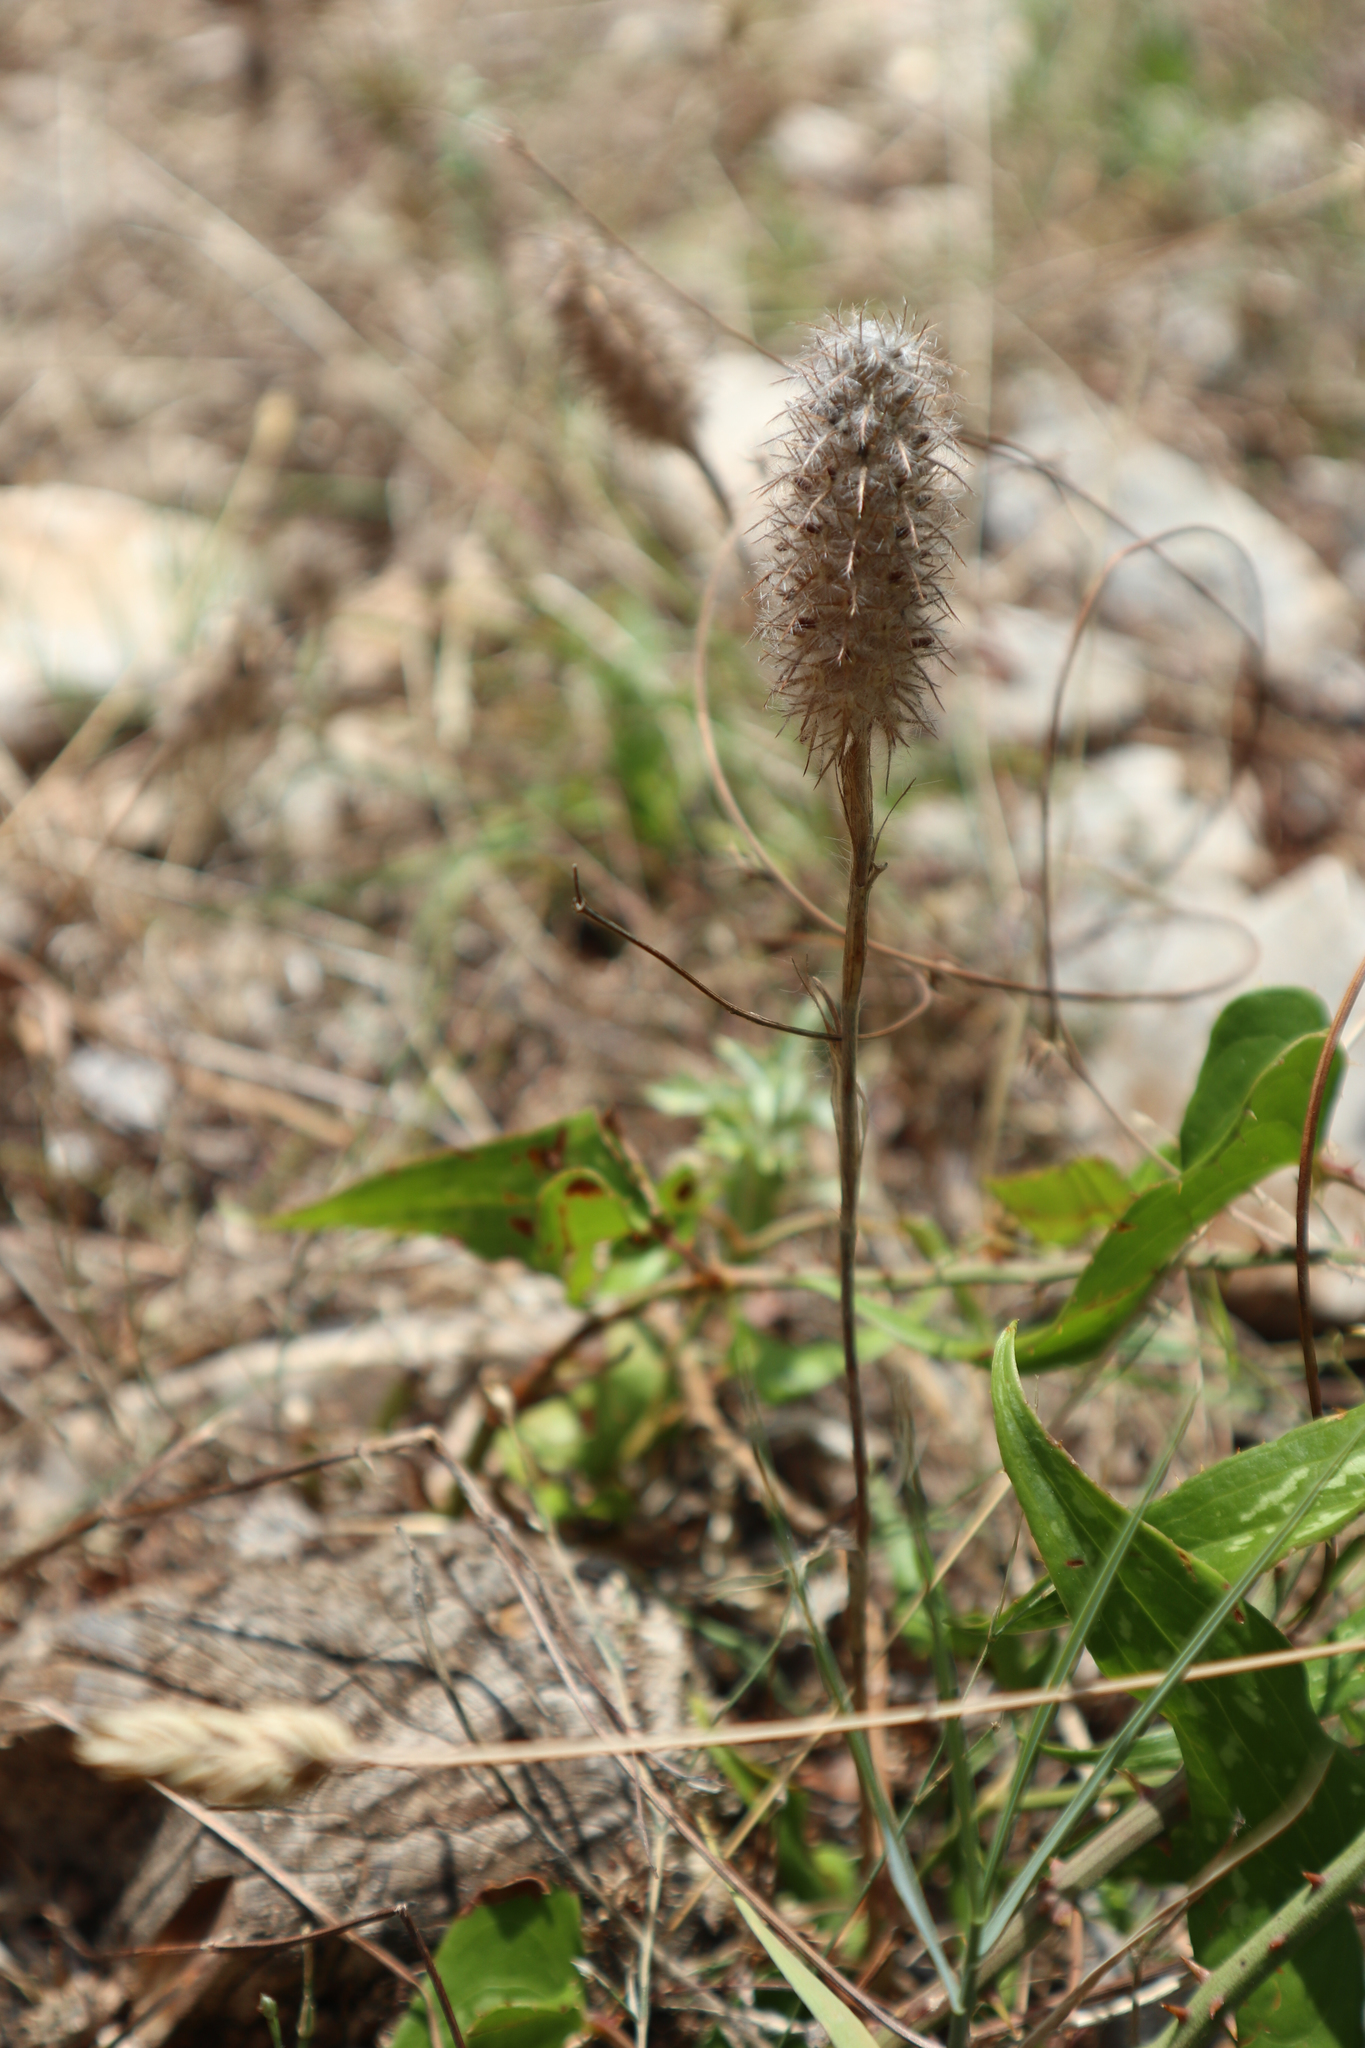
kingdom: Plantae
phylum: Tracheophyta
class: Magnoliopsida
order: Fabales
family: Fabaceae
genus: Trifolium
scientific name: Trifolium angustifolium
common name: Narrow clover
